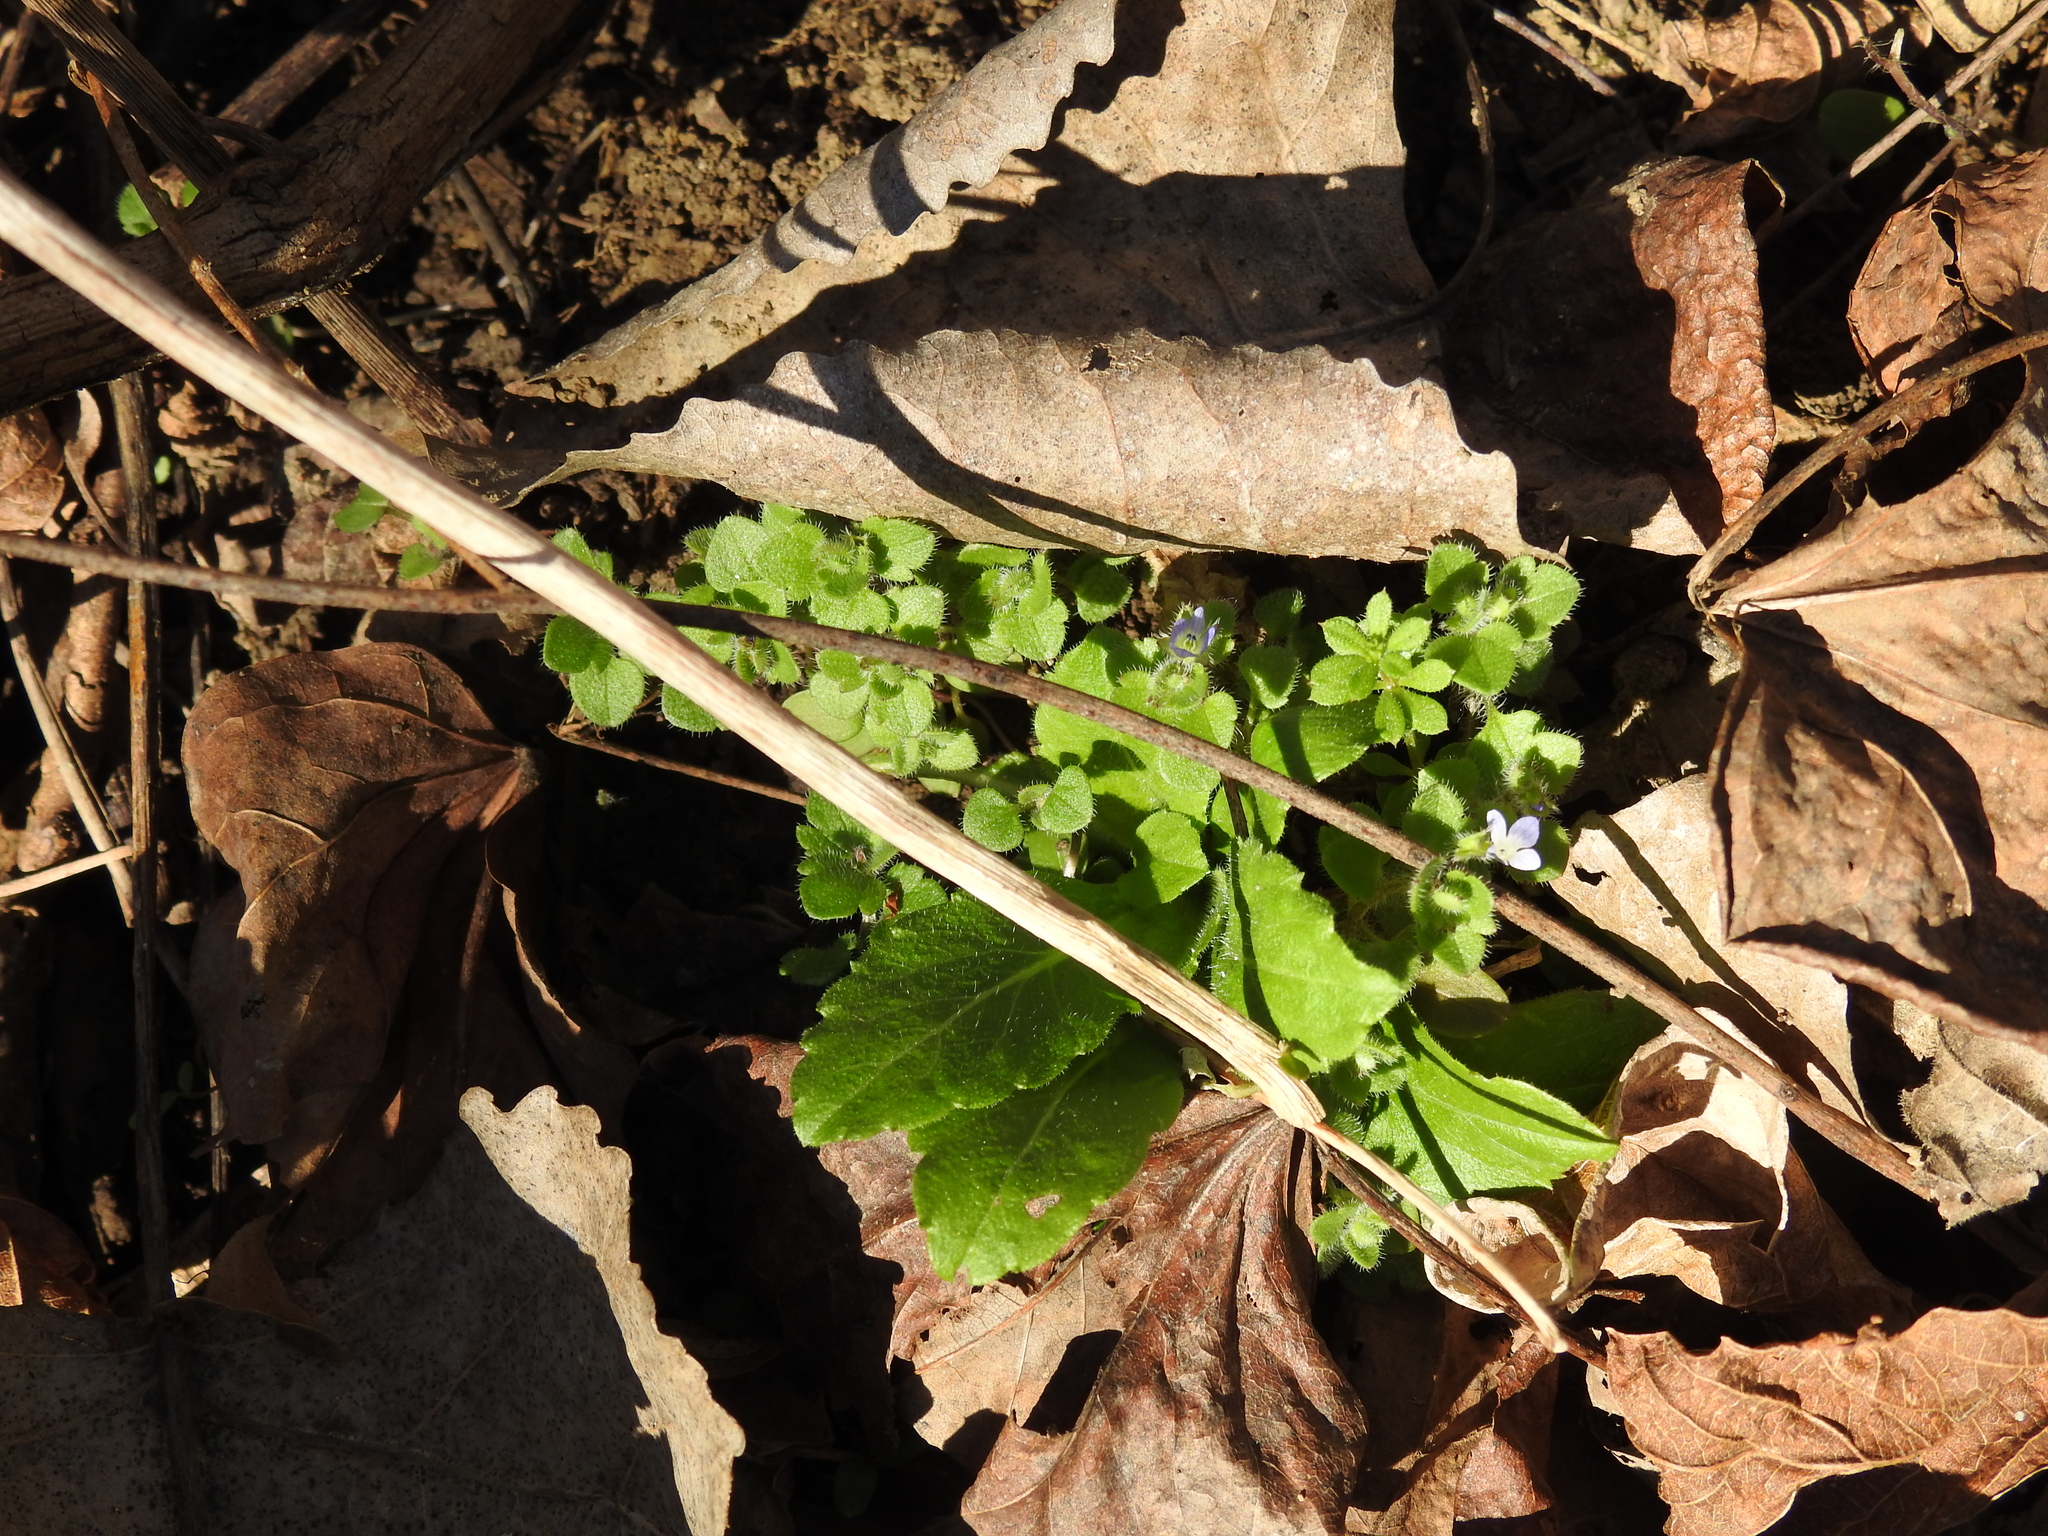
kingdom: Plantae
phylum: Tracheophyta
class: Magnoliopsida
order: Lamiales
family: Plantaginaceae
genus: Veronica
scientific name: Veronica hederifolia
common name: Ivy-leaved speedwell
